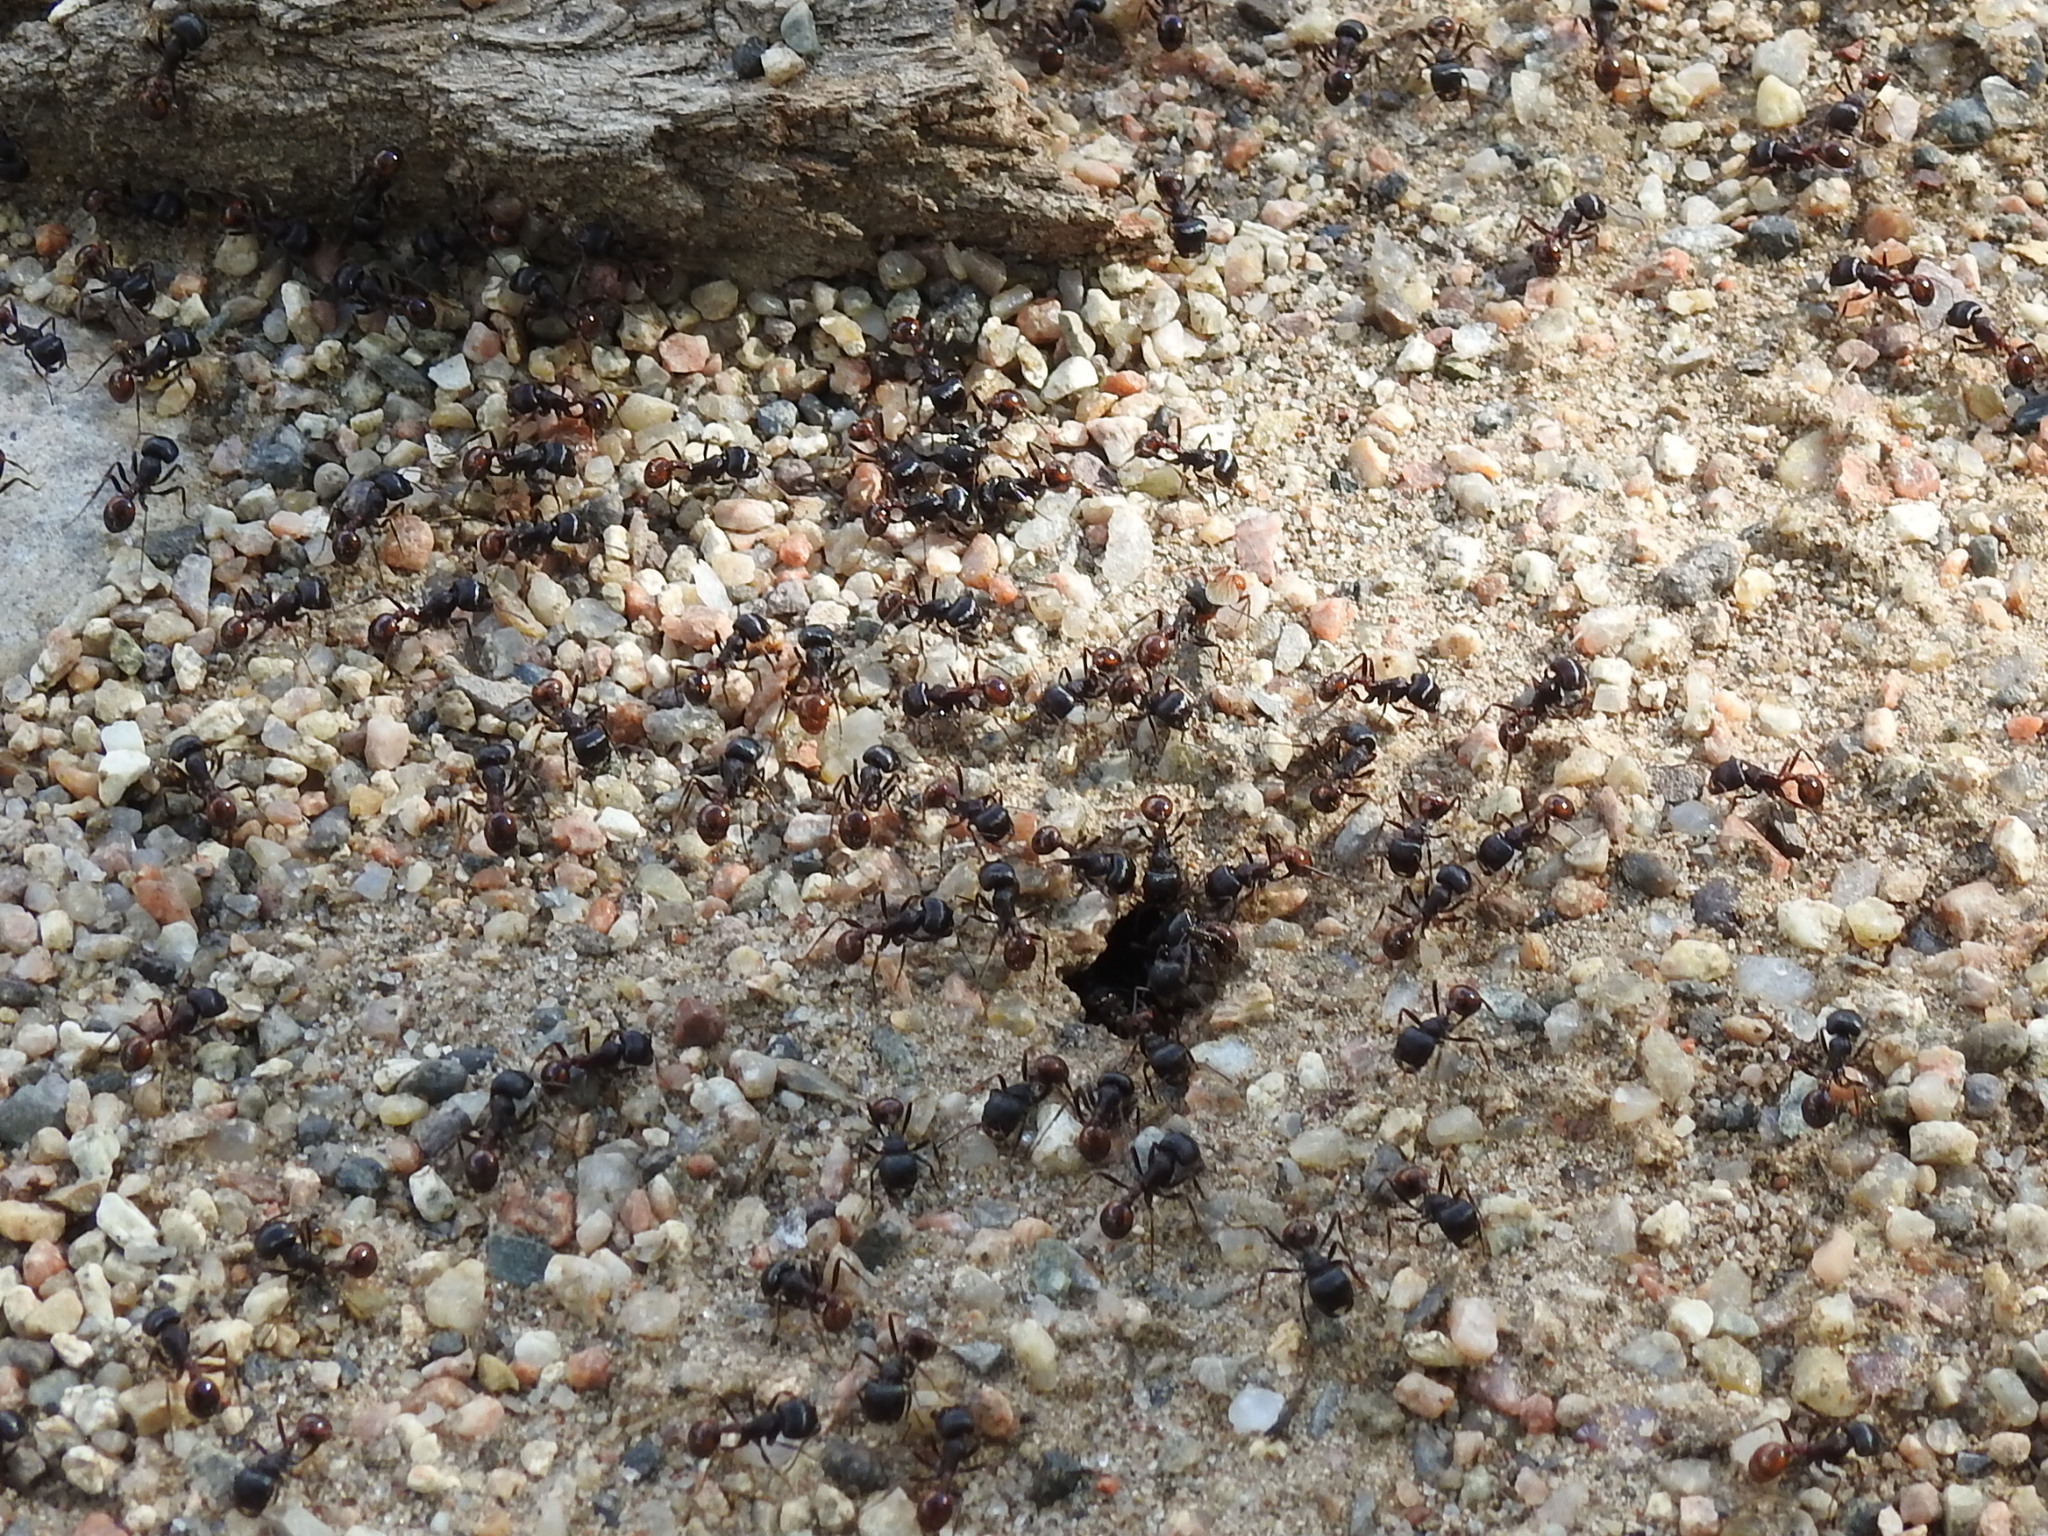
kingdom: Animalia
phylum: Arthropoda
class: Insecta
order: Hymenoptera
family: Formicidae
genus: Pogonomyrmex
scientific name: Pogonomyrmex rugosus
